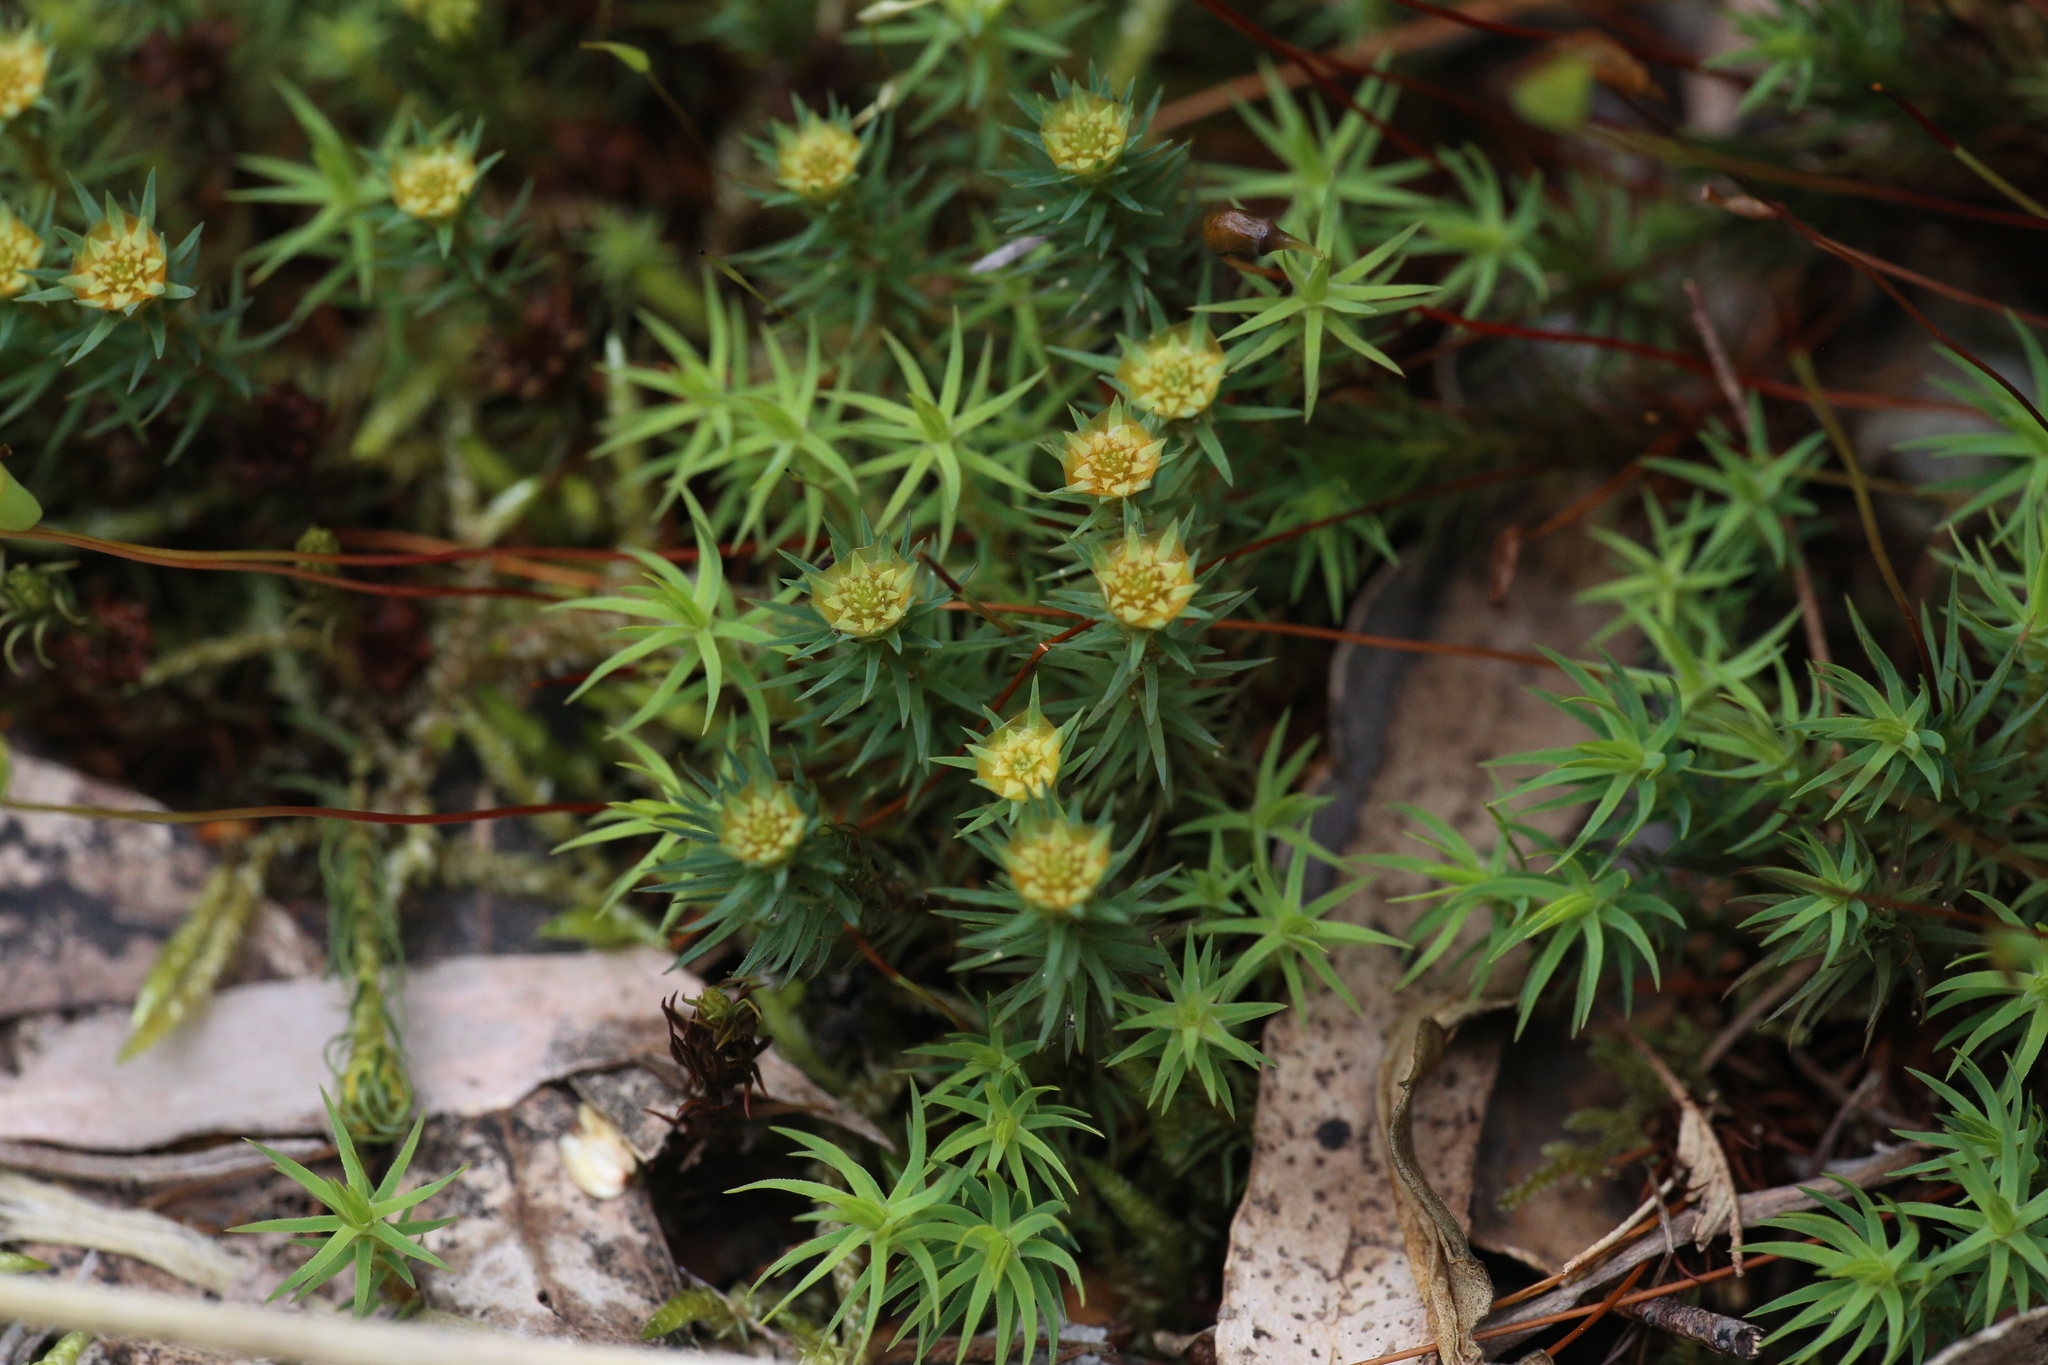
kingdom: Plantae
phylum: Bryophyta
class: Polytrichopsida
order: Polytrichales
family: Polytrichaceae
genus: Polytrichadelphus
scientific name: Polytrichadelphus magellanicus
